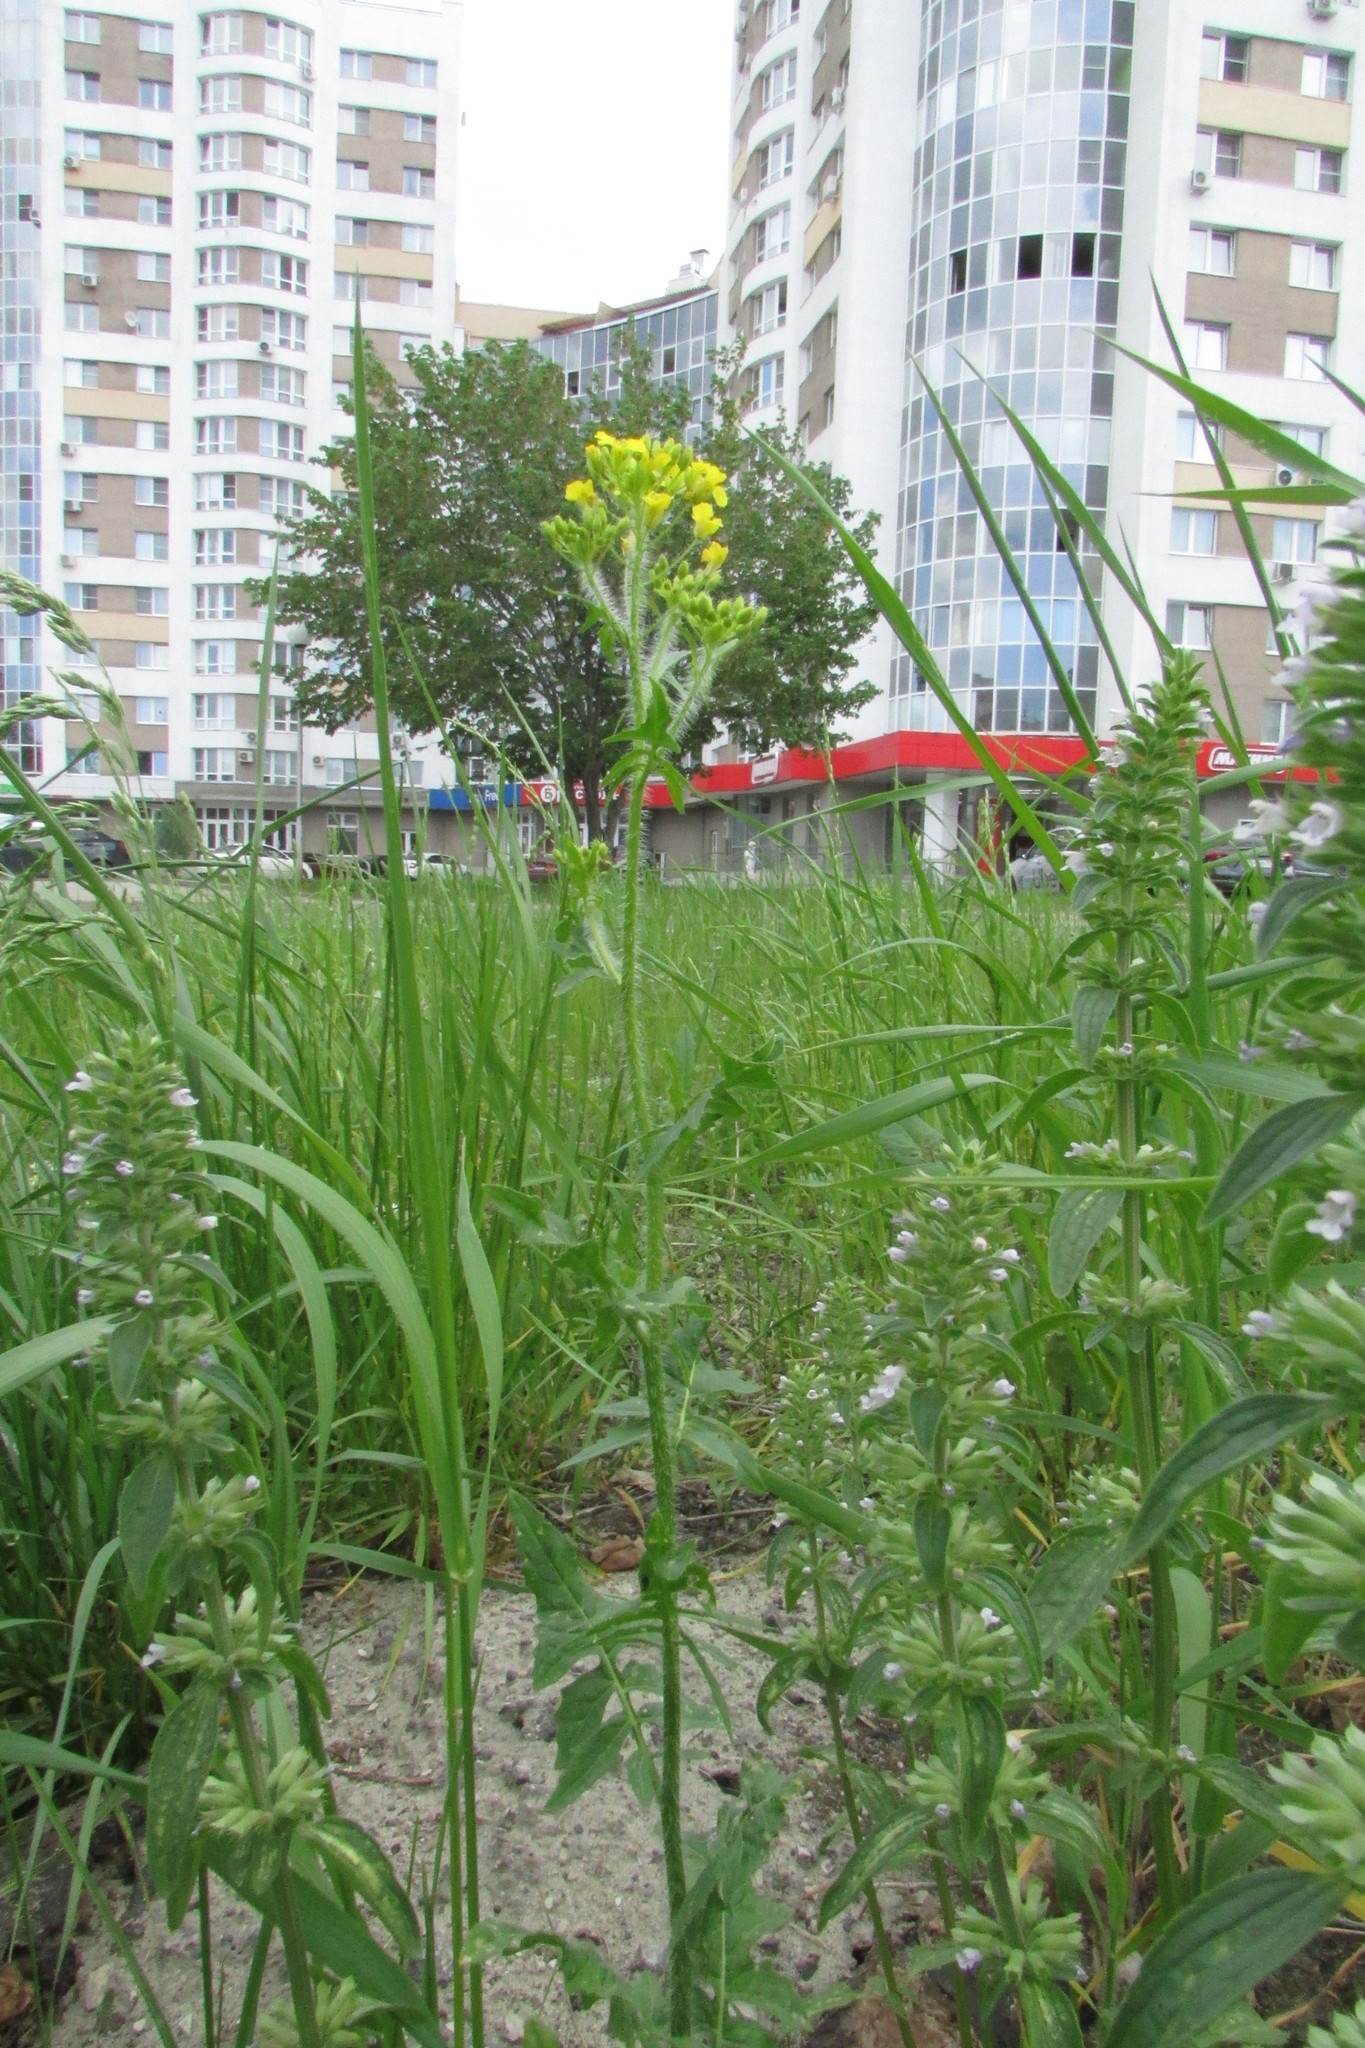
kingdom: Plantae
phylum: Tracheophyta
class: Magnoliopsida
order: Brassicales
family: Brassicaceae
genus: Sisymbrium
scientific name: Sisymbrium loeselii
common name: False london-rocket
